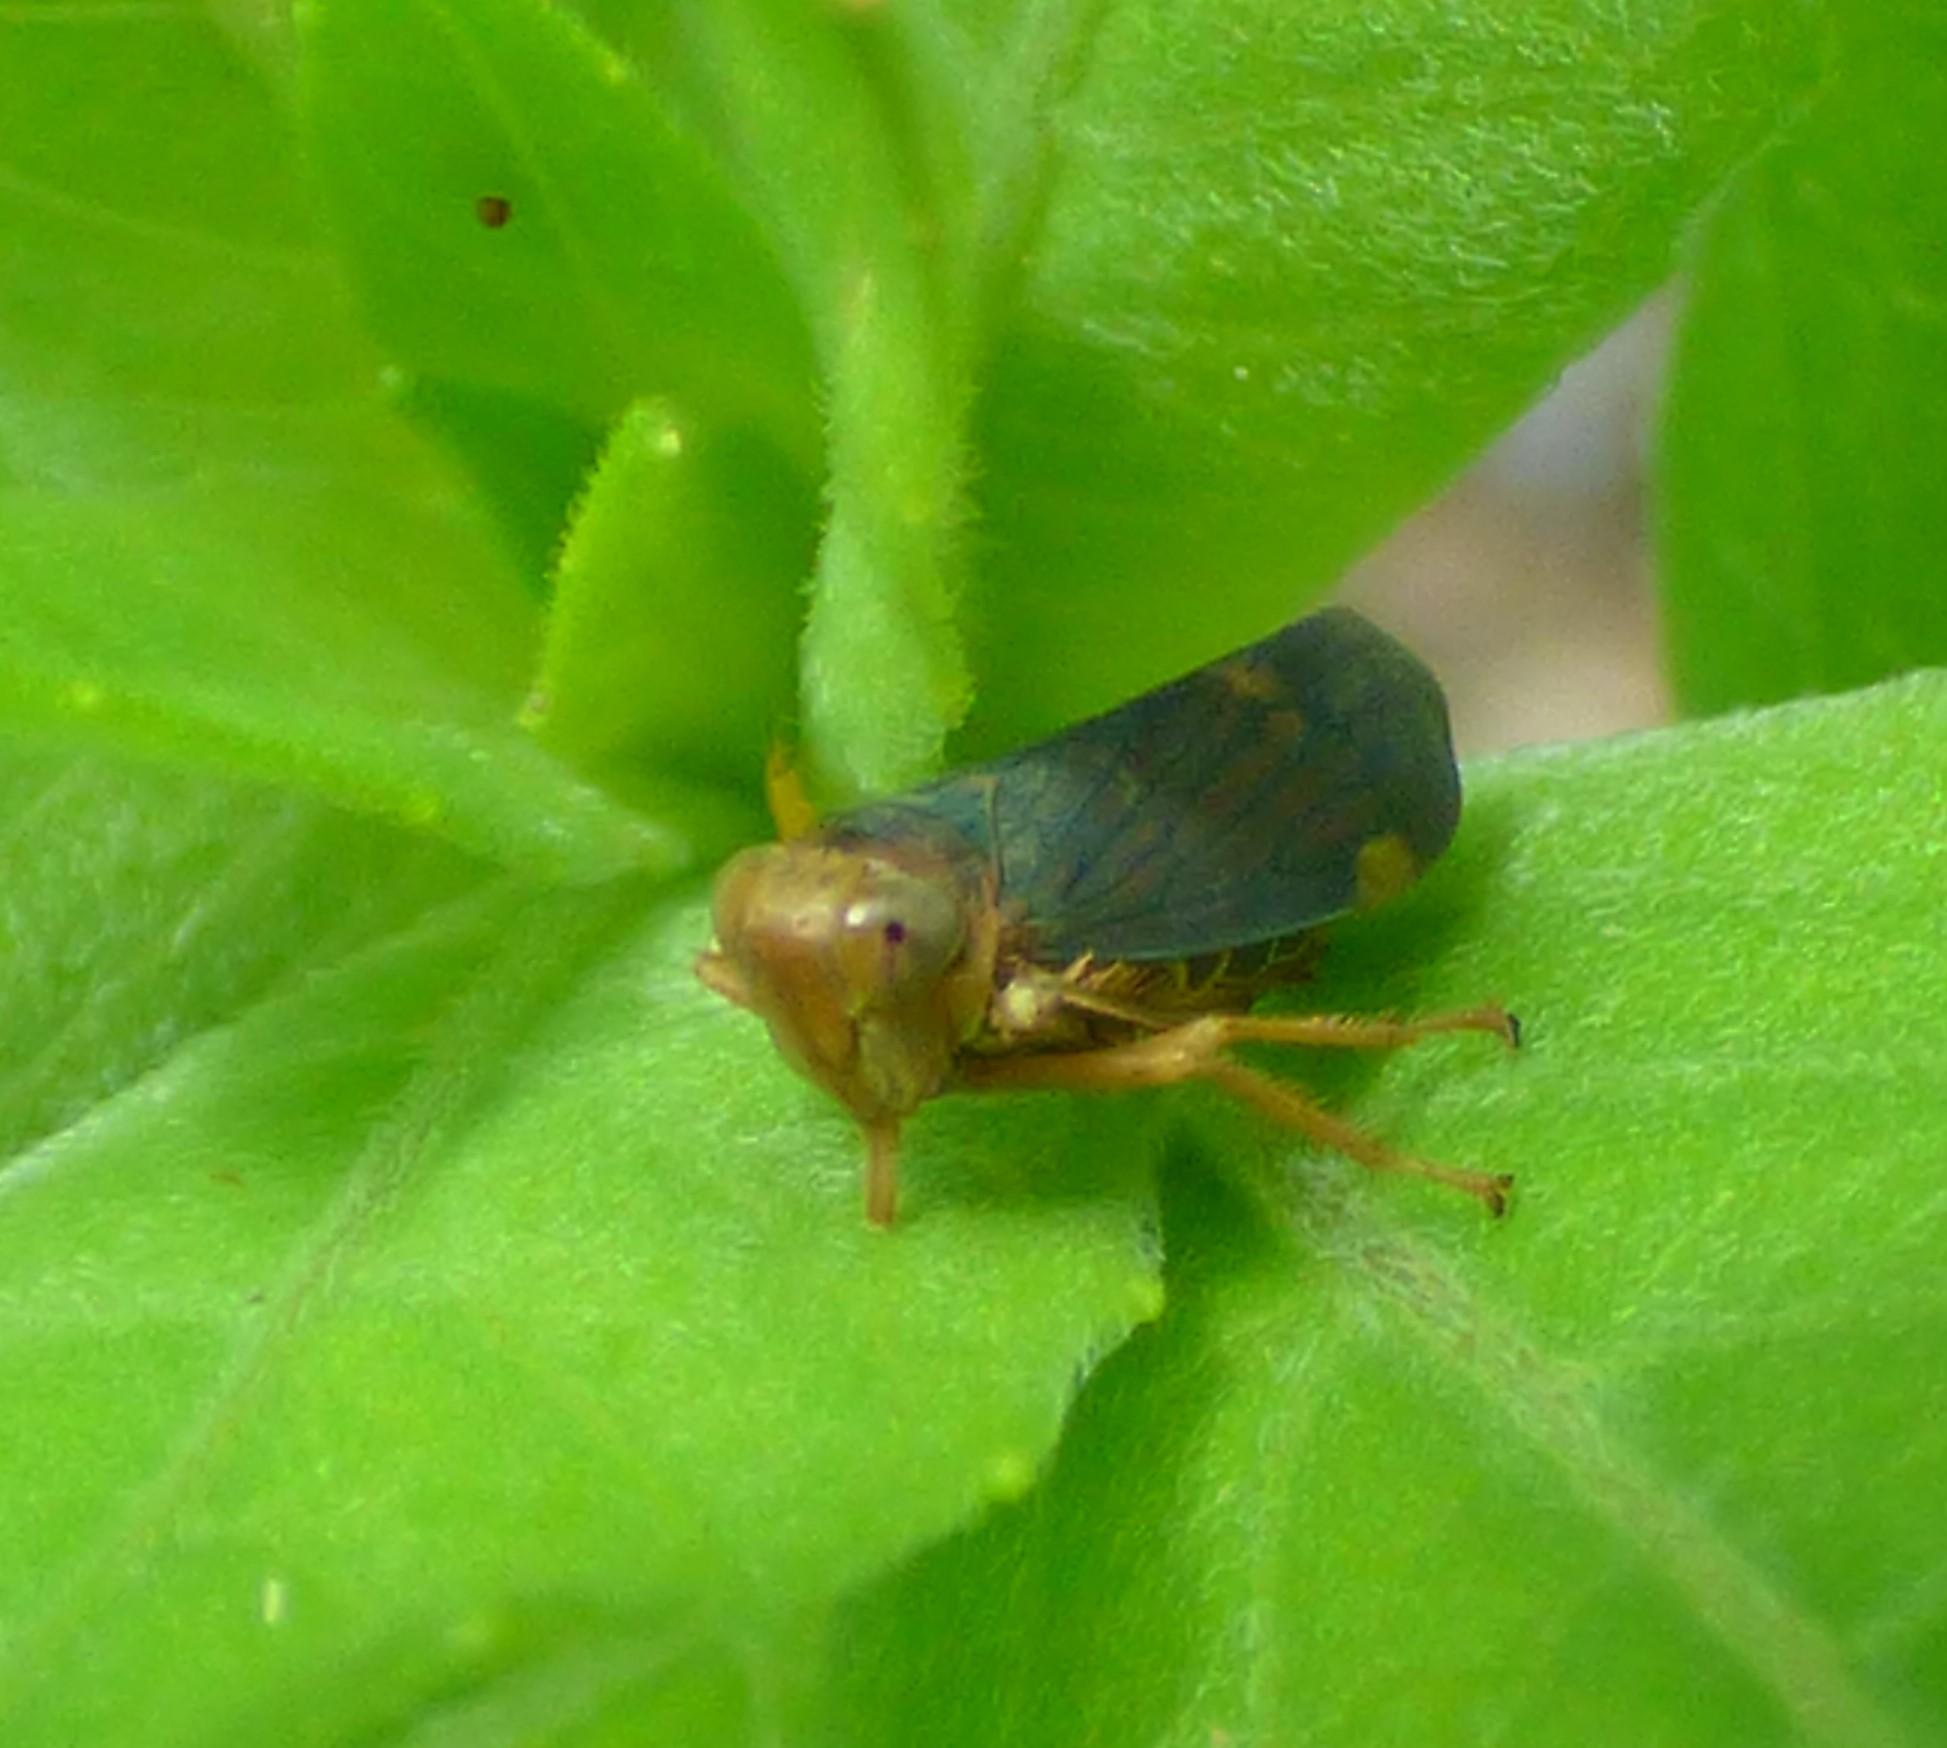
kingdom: Animalia
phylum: Arthropoda
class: Insecta
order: Hemiptera
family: Cicadellidae
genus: Jikradia
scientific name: Jikradia olitoria
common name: Coppery leafhopper
